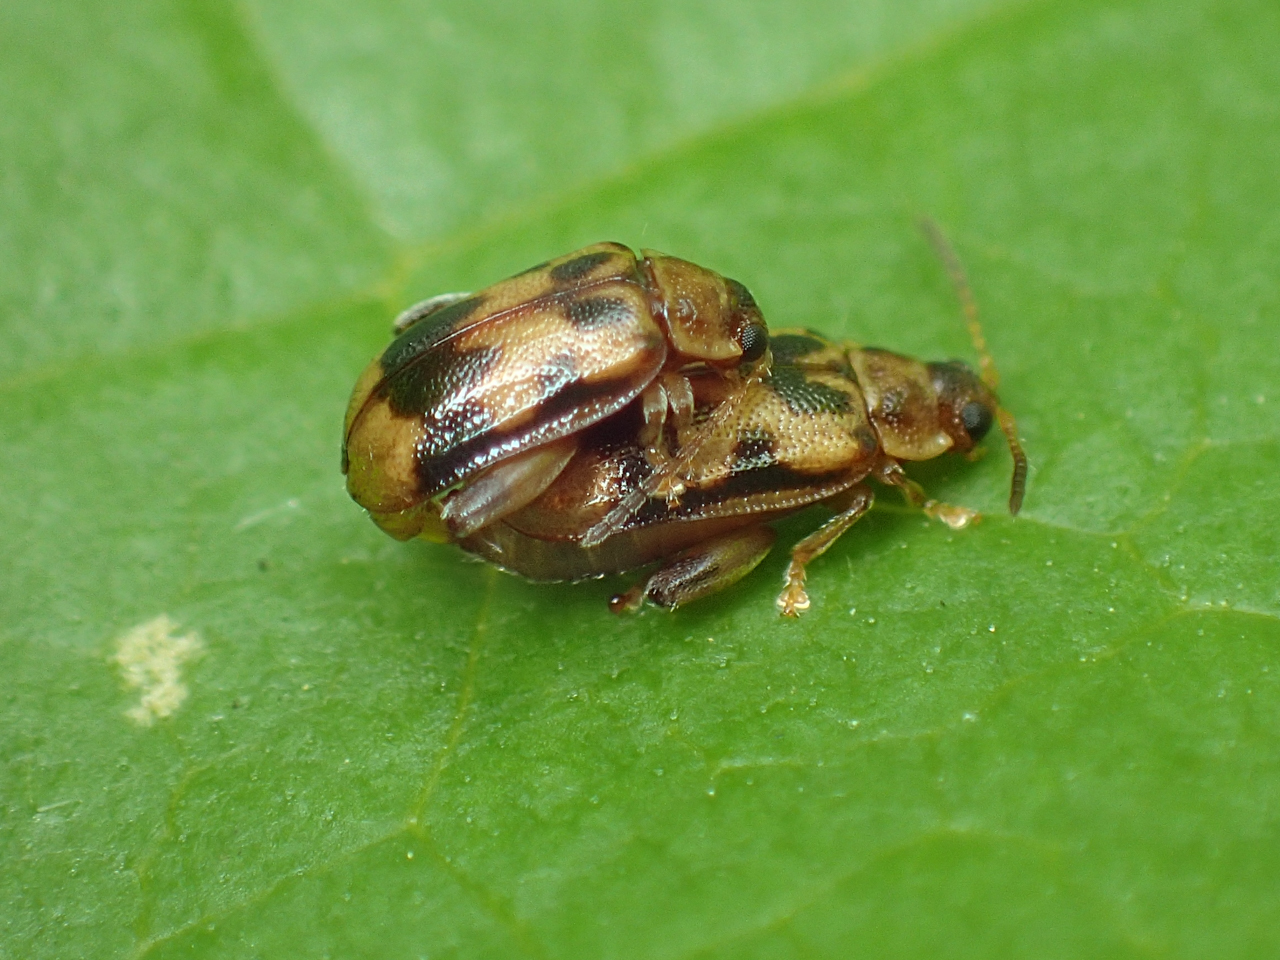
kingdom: Animalia
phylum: Arthropoda
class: Insecta
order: Coleoptera
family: Chrysomelidae
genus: Capraita
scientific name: Capraita sexmaculata
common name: Charlie brown flea beetle
